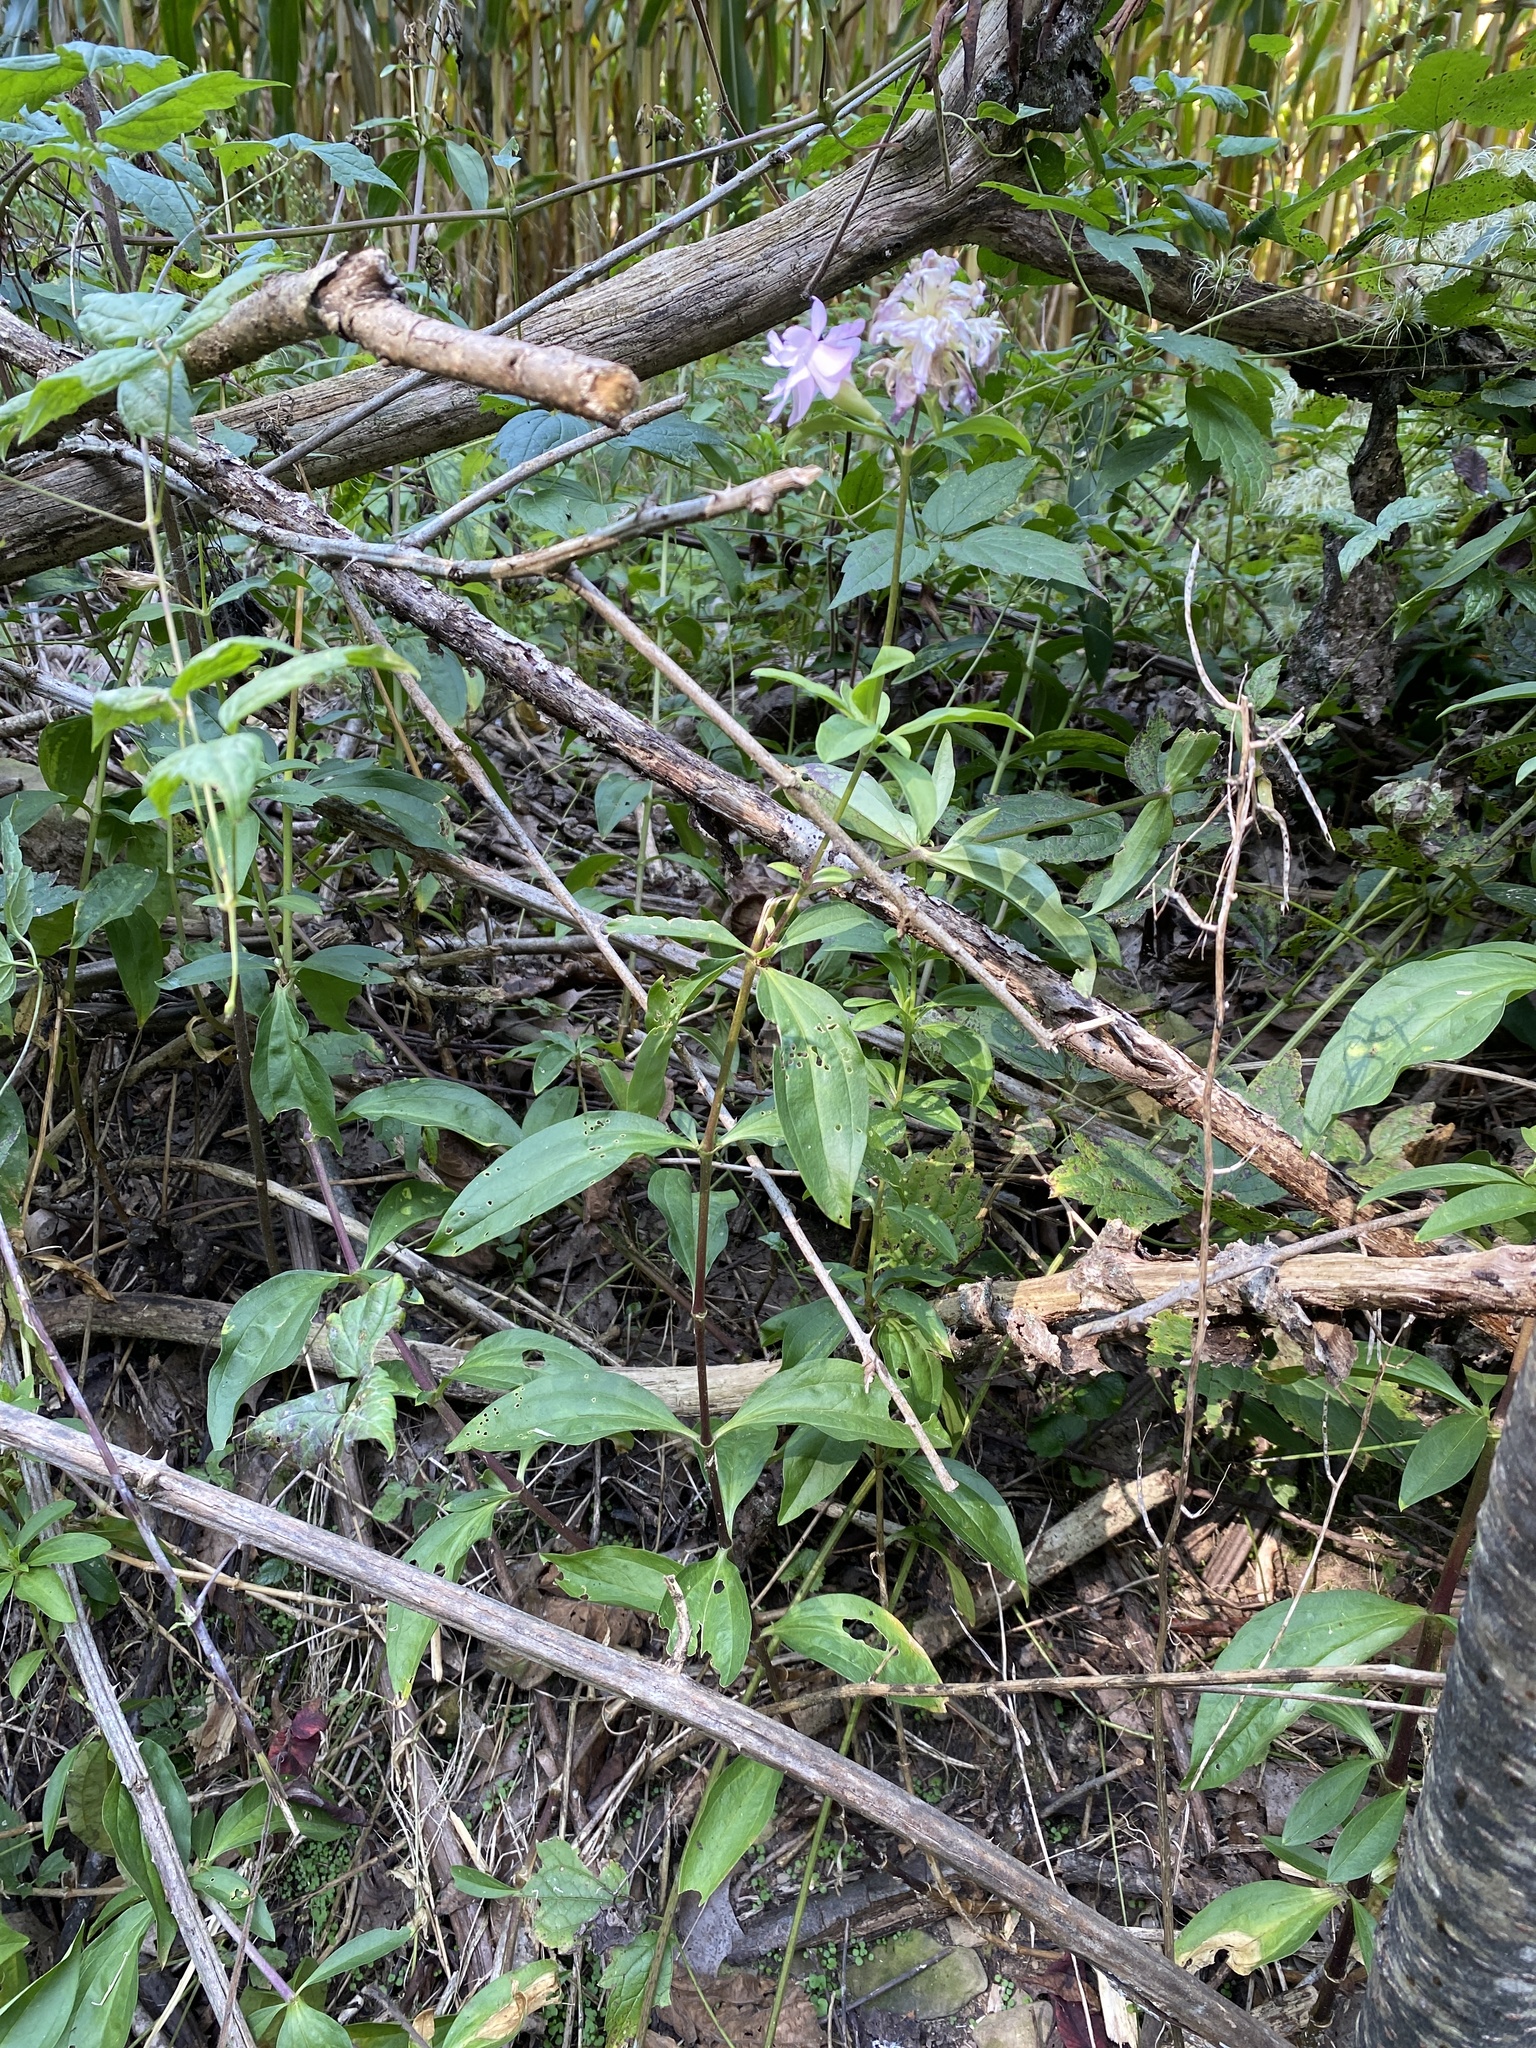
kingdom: Plantae
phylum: Tracheophyta
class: Magnoliopsida
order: Caryophyllales
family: Caryophyllaceae
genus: Saponaria
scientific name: Saponaria officinalis
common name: Soapwort
